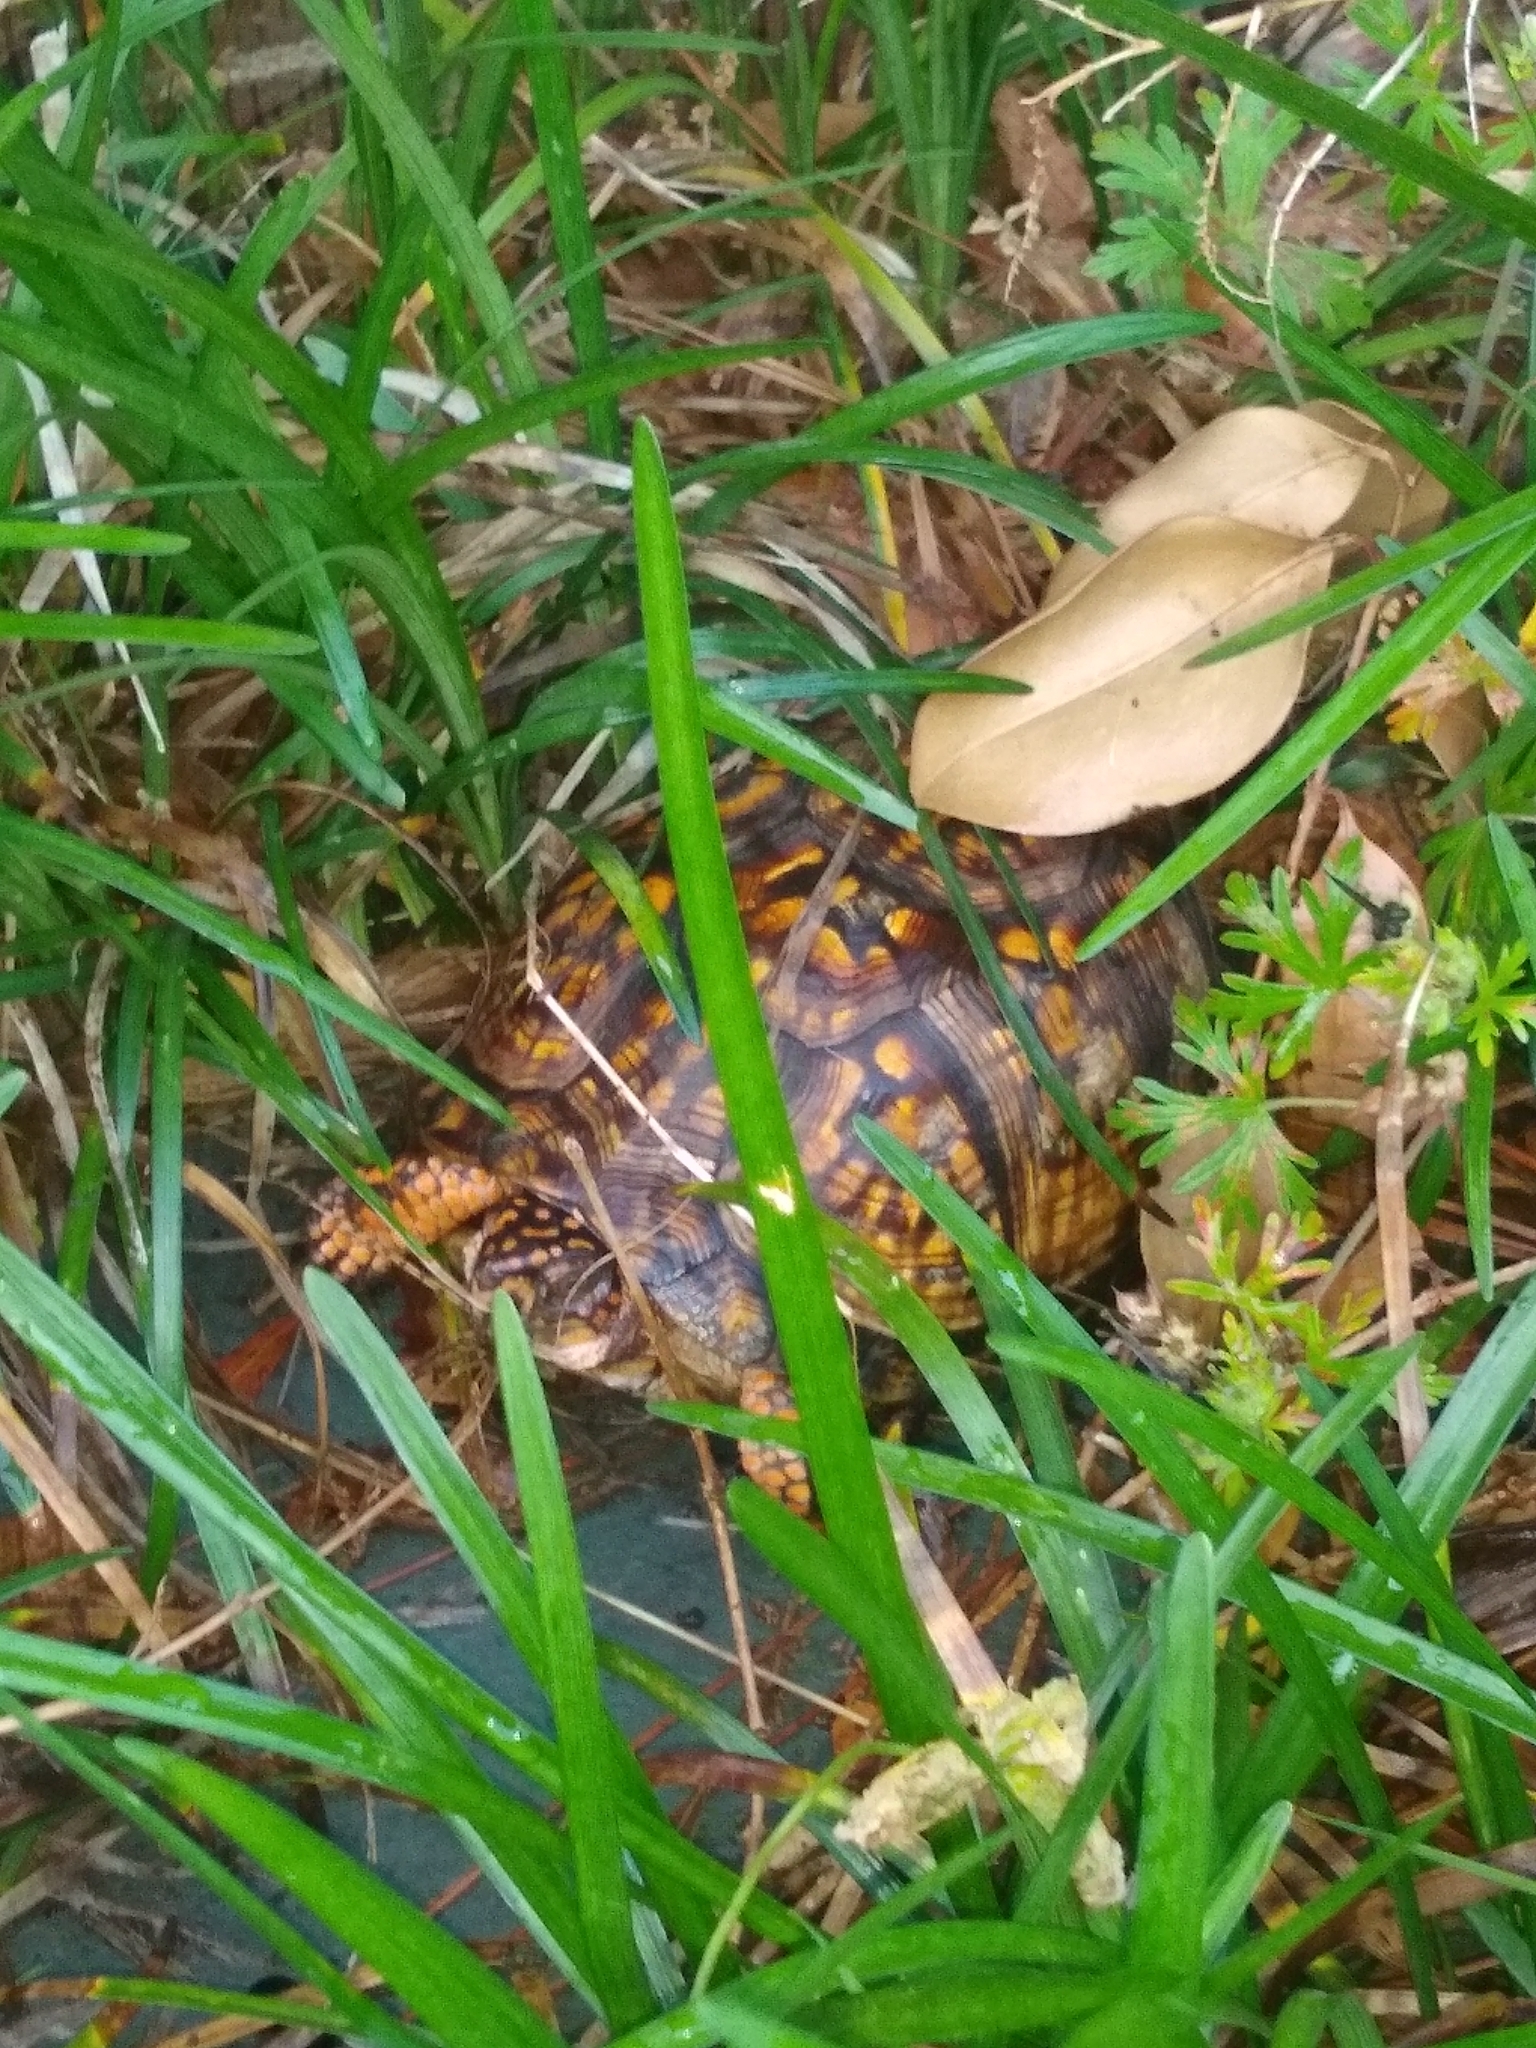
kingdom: Animalia
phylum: Chordata
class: Testudines
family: Emydidae
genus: Terrapene
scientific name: Terrapene carolina
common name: Common box turtle
